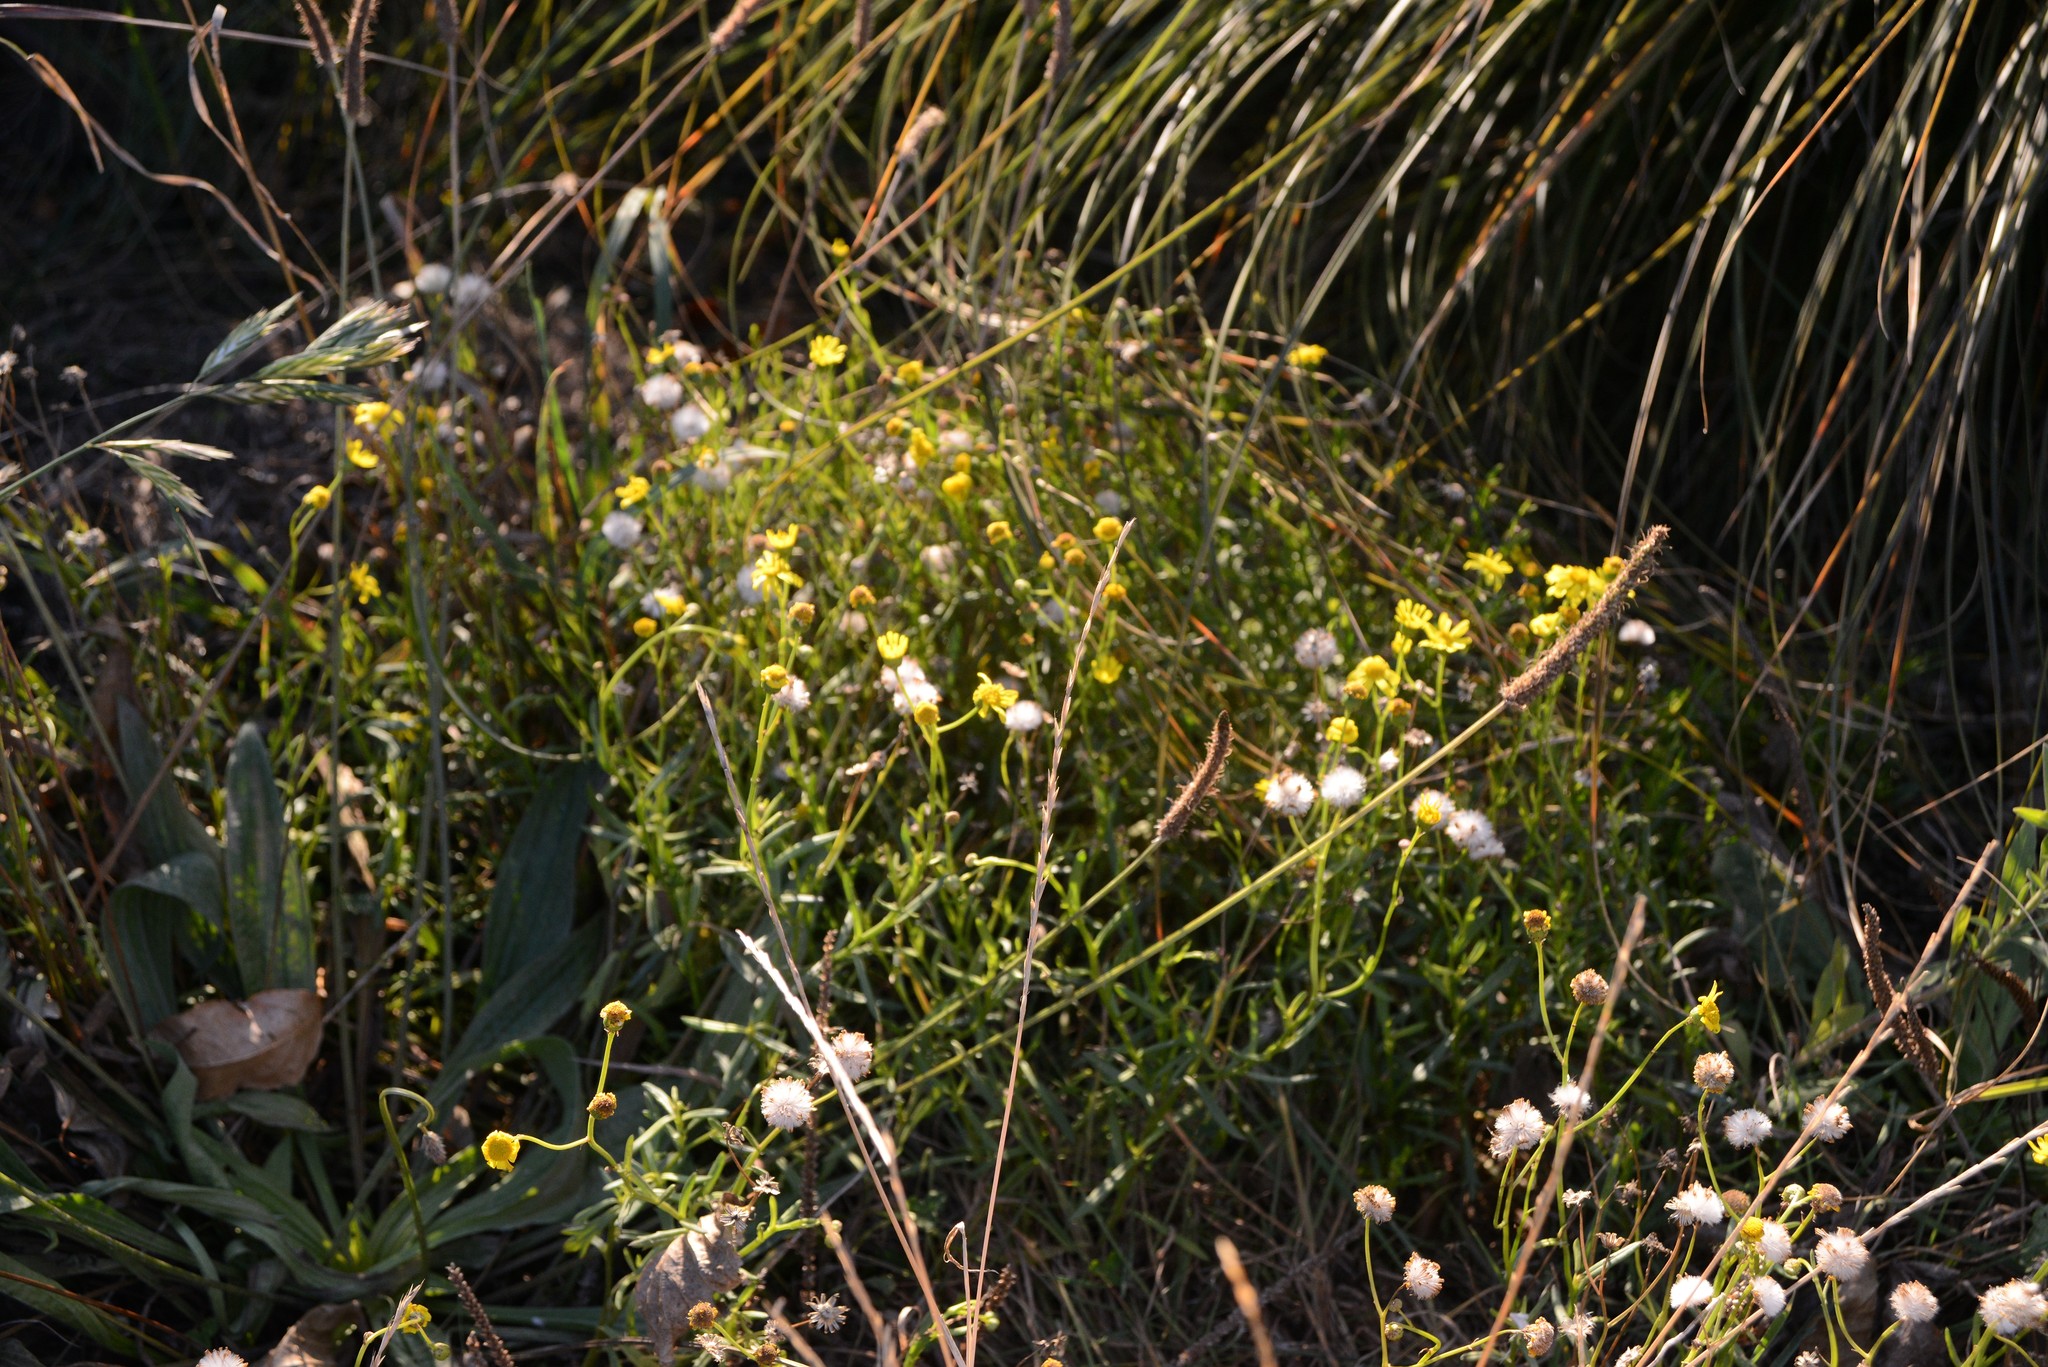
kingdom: Plantae
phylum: Tracheophyta
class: Magnoliopsida
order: Asterales
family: Asteraceae
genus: Senecio
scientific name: Senecio skirrhodon
